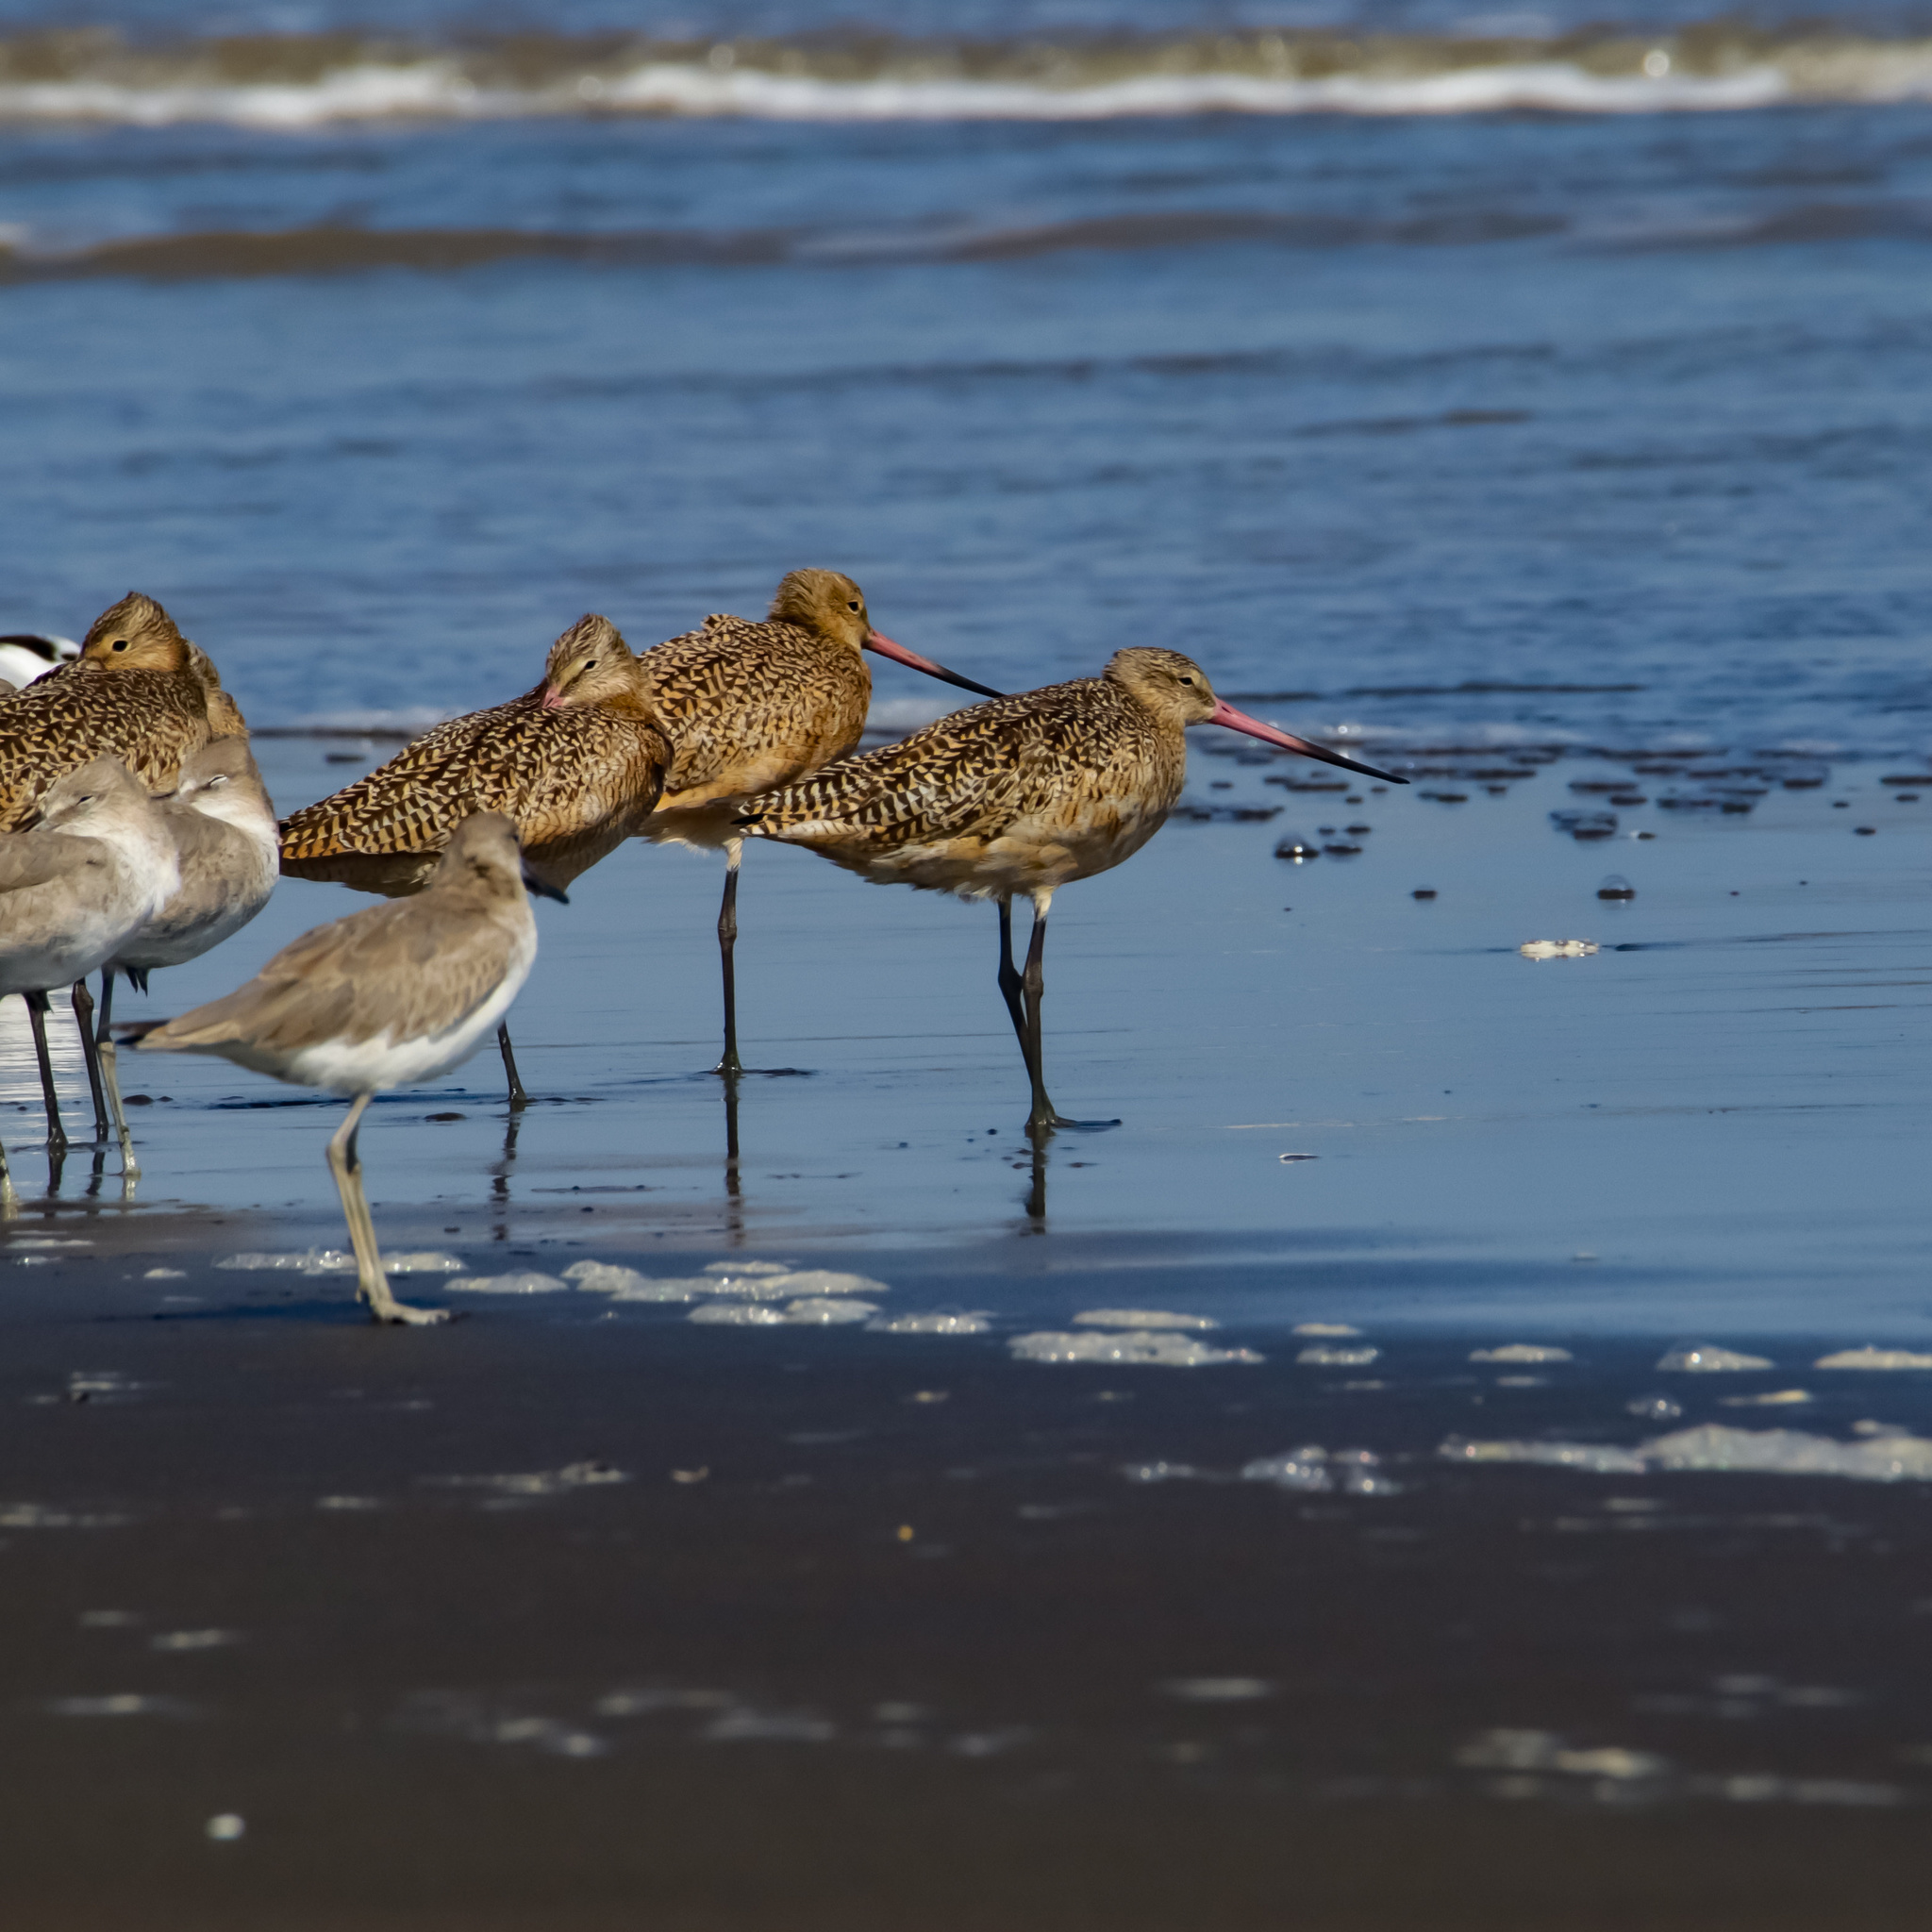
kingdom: Animalia
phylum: Chordata
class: Aves
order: Charadriiformes
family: Scolopacidae
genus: Limosa
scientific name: Limosa fedoa
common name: Marbled godwit
